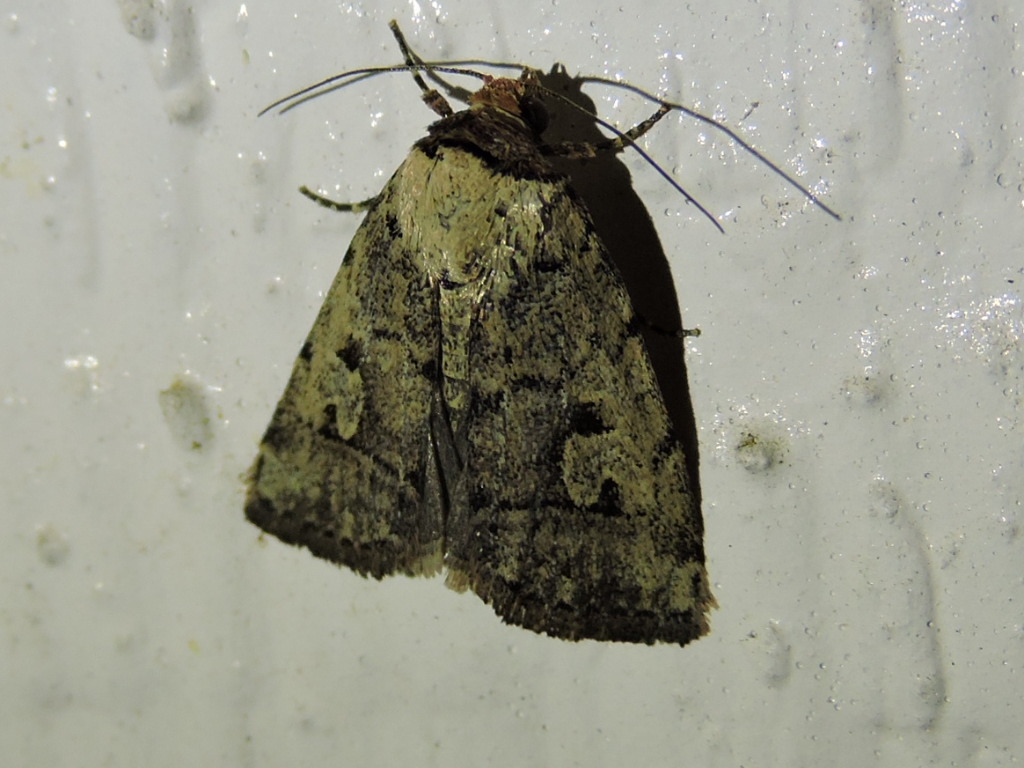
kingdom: Animalia
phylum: Arthropoda
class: Insecta
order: Lepidoptera
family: Noctuidae
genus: Elaphria
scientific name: Elaphria festivoides
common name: Festive midget
